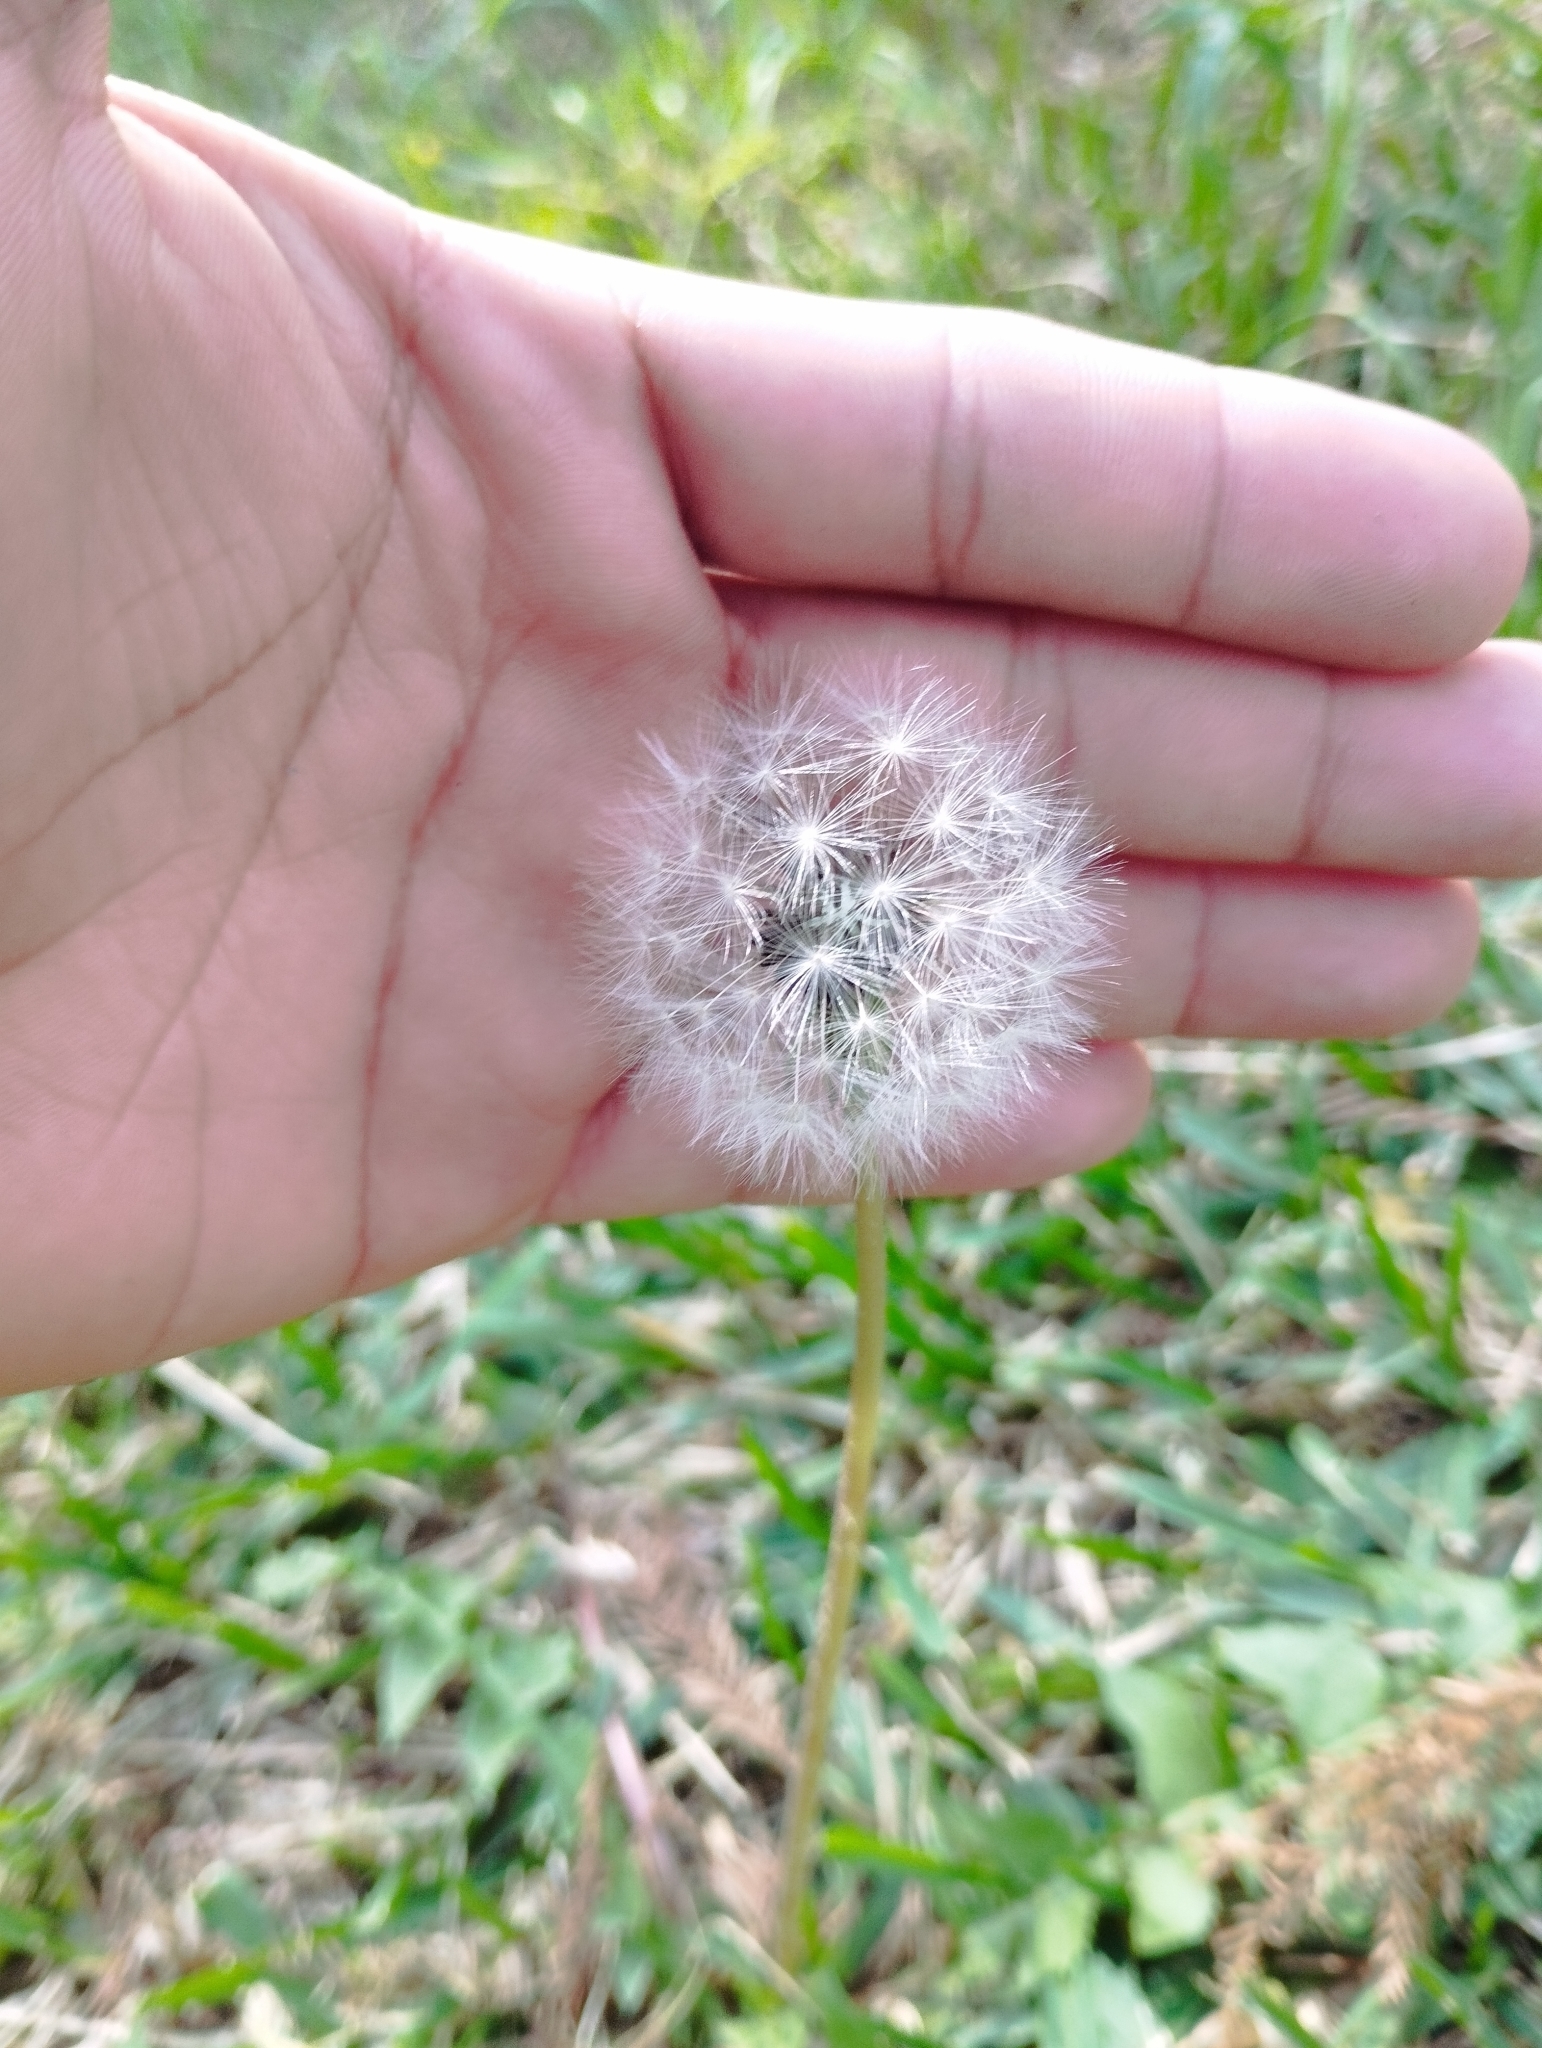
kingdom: Plantae
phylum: Tracheophyta
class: Magnoliopsida
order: Asterales
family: Asteraceae
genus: Taraxacum
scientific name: Taraxacum officinale
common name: Common dandelion
